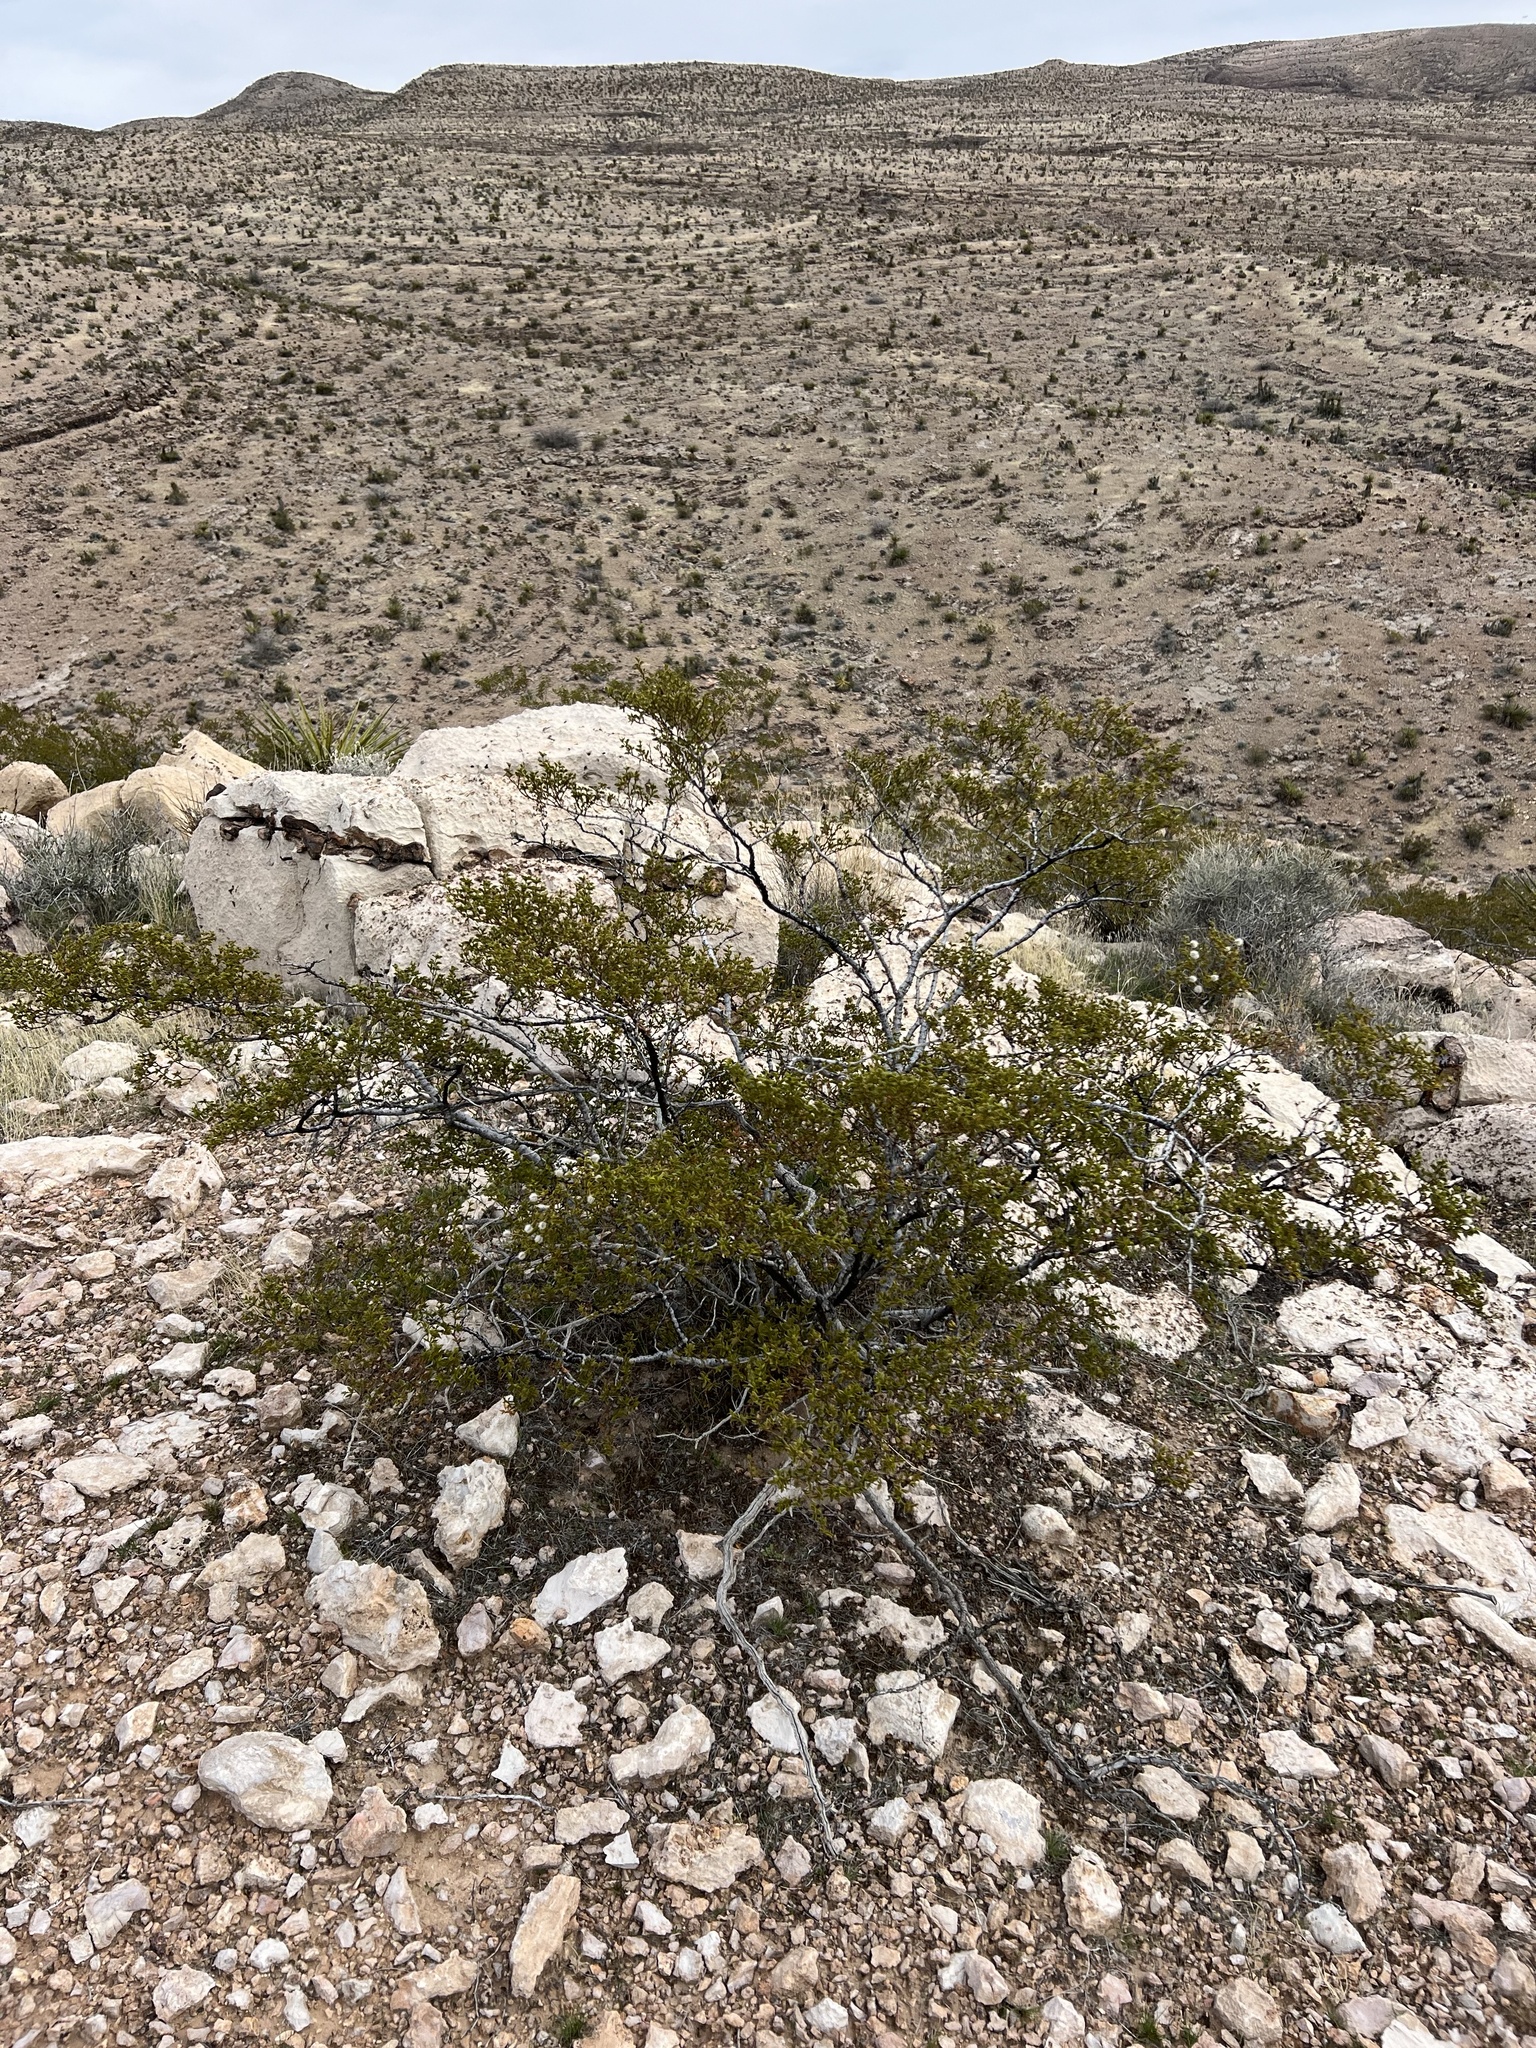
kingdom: Plantae
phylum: Tracheophyta
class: Magnoliopsida
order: Zygophyllales
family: Zygophyllaceae
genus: Larrea
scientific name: Larrea tridentata
